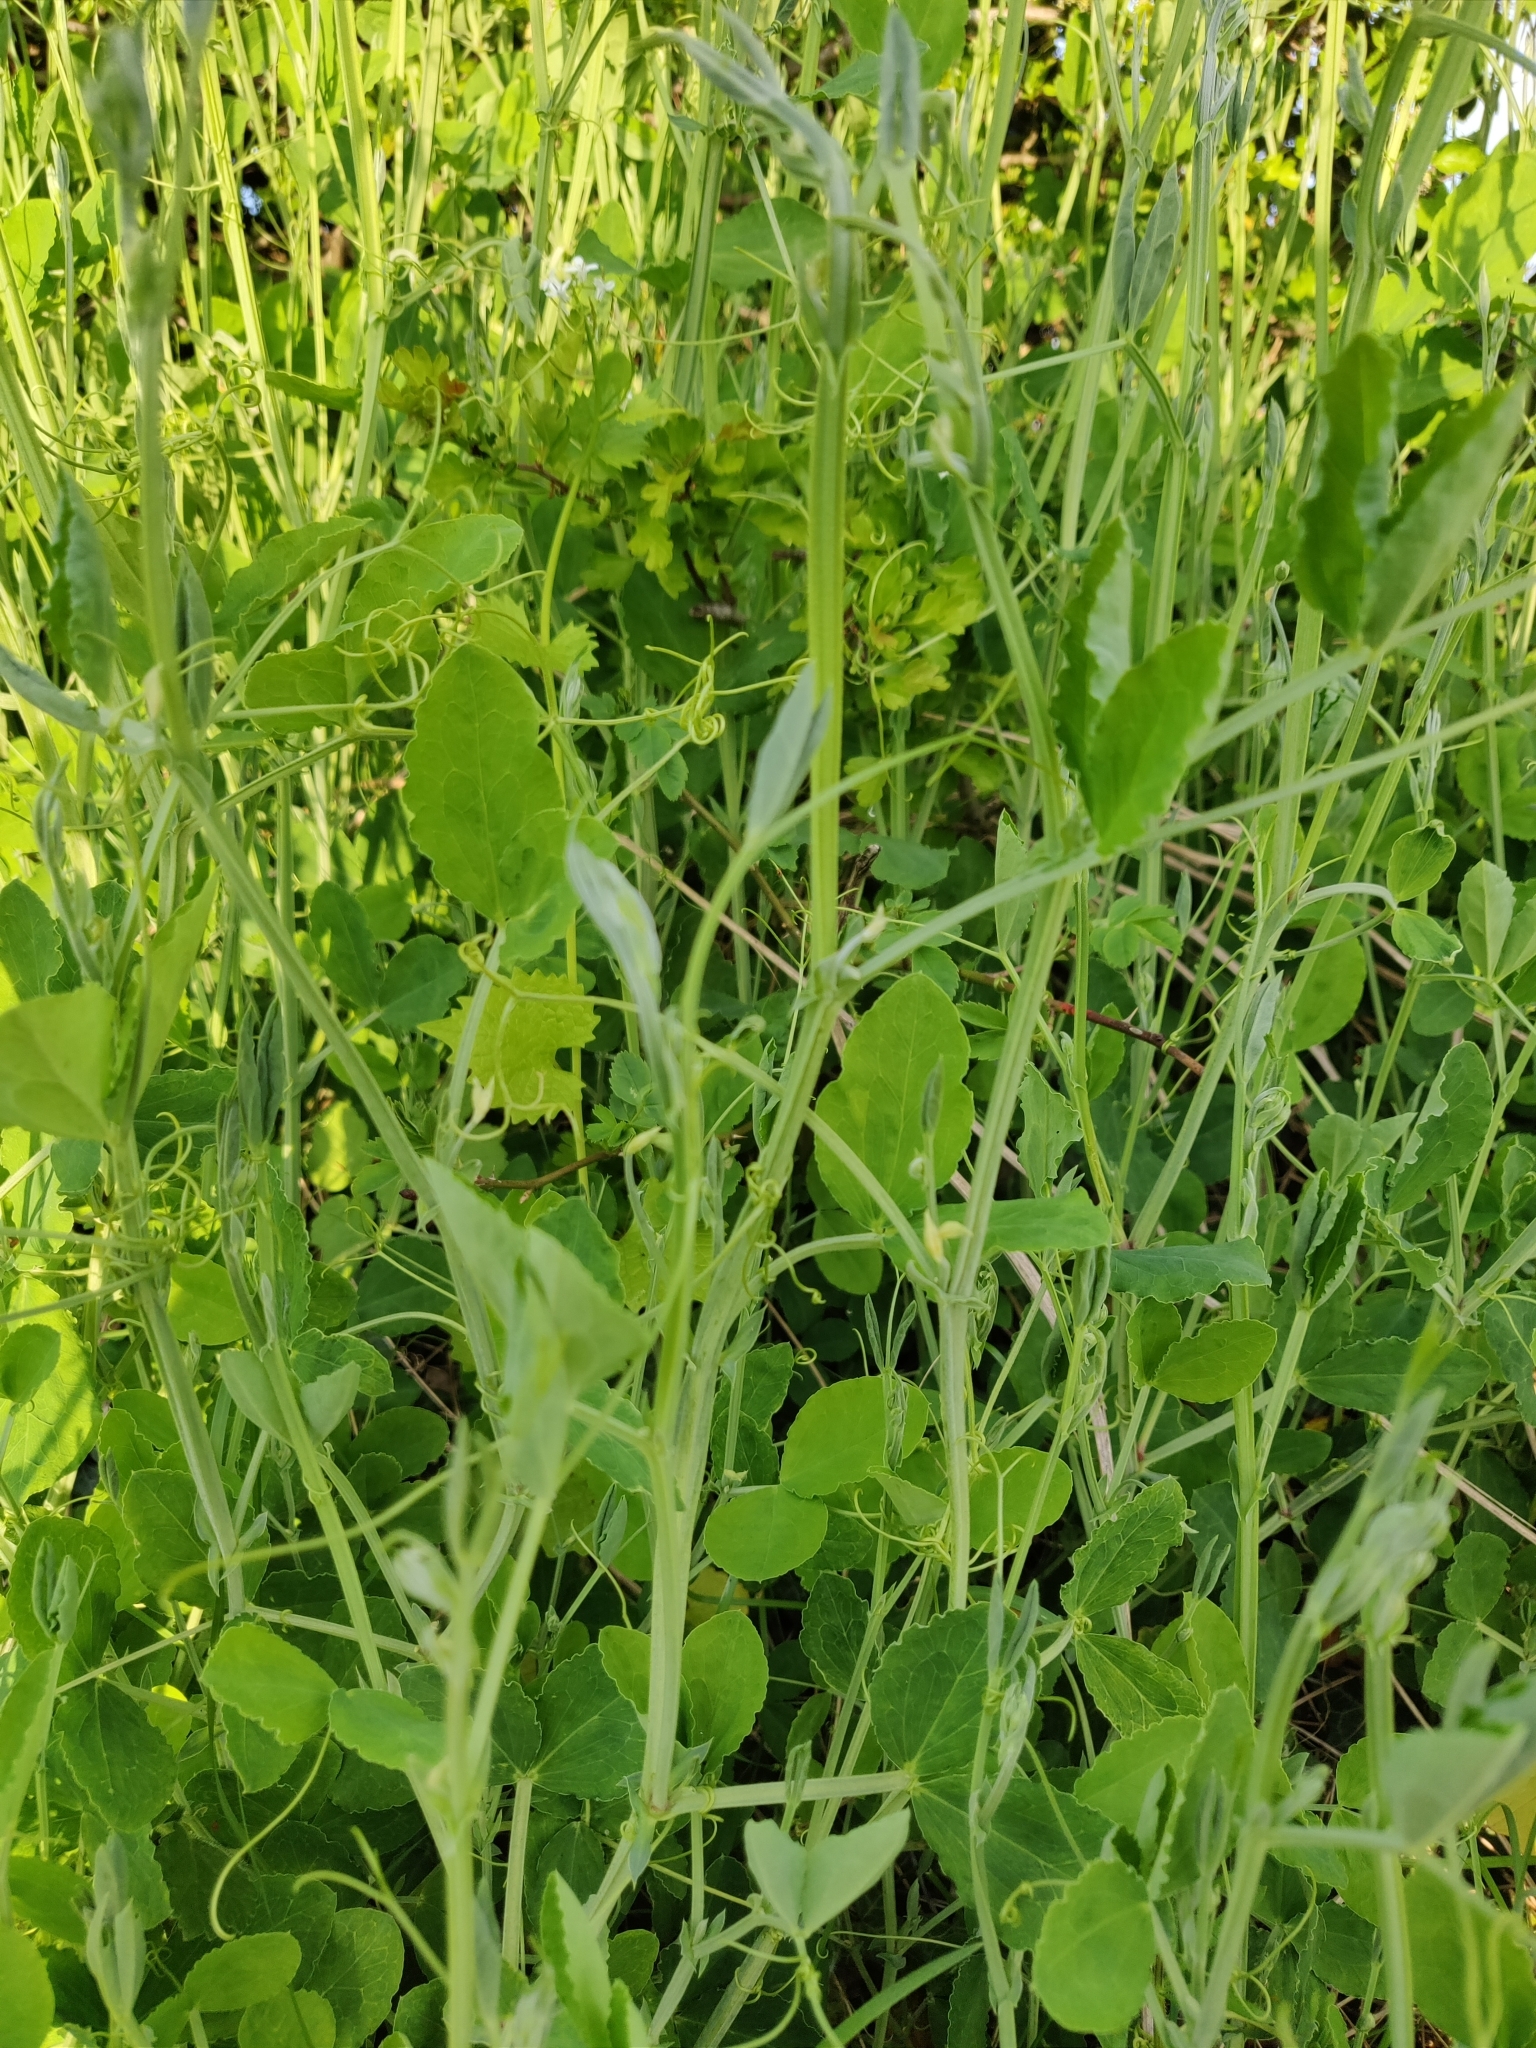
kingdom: Plantae
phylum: Tracheophyta
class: Magnoliopsida
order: Fabales
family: Fabaceae
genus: Lathyrus
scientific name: Lathyrus latifolius
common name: Perennial pea
